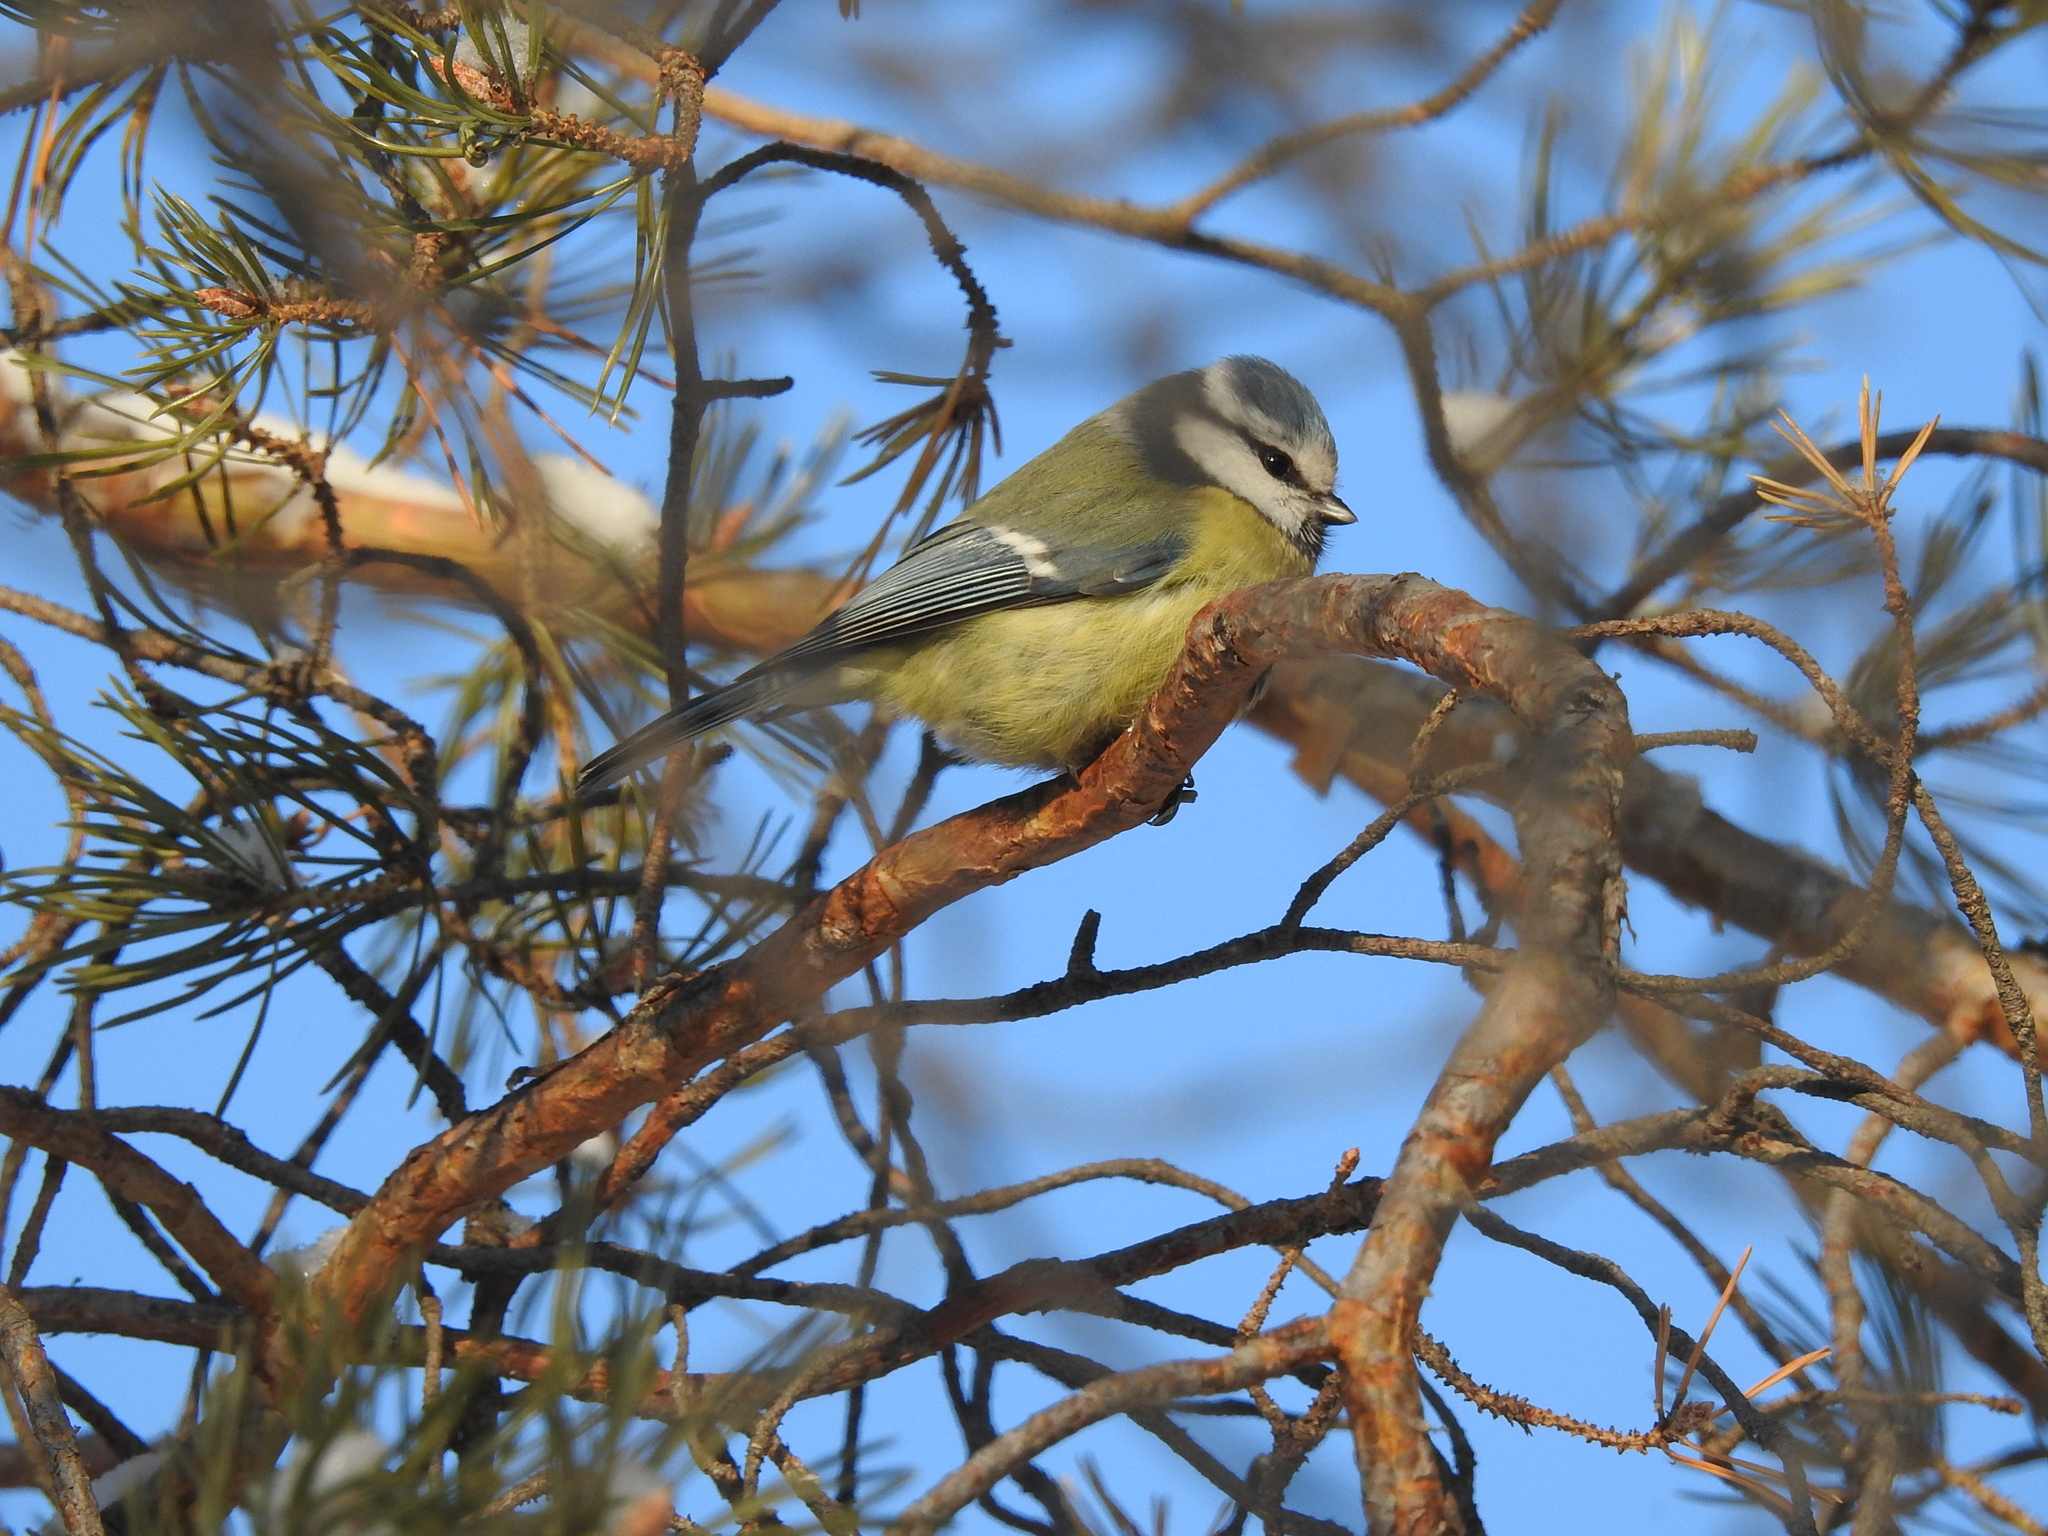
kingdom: Animalia
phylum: Chordata
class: Aves
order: Passeriformes
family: Paridae
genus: Cyanistes
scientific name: Cyanistes caeruleus
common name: Eurasian blue tit
